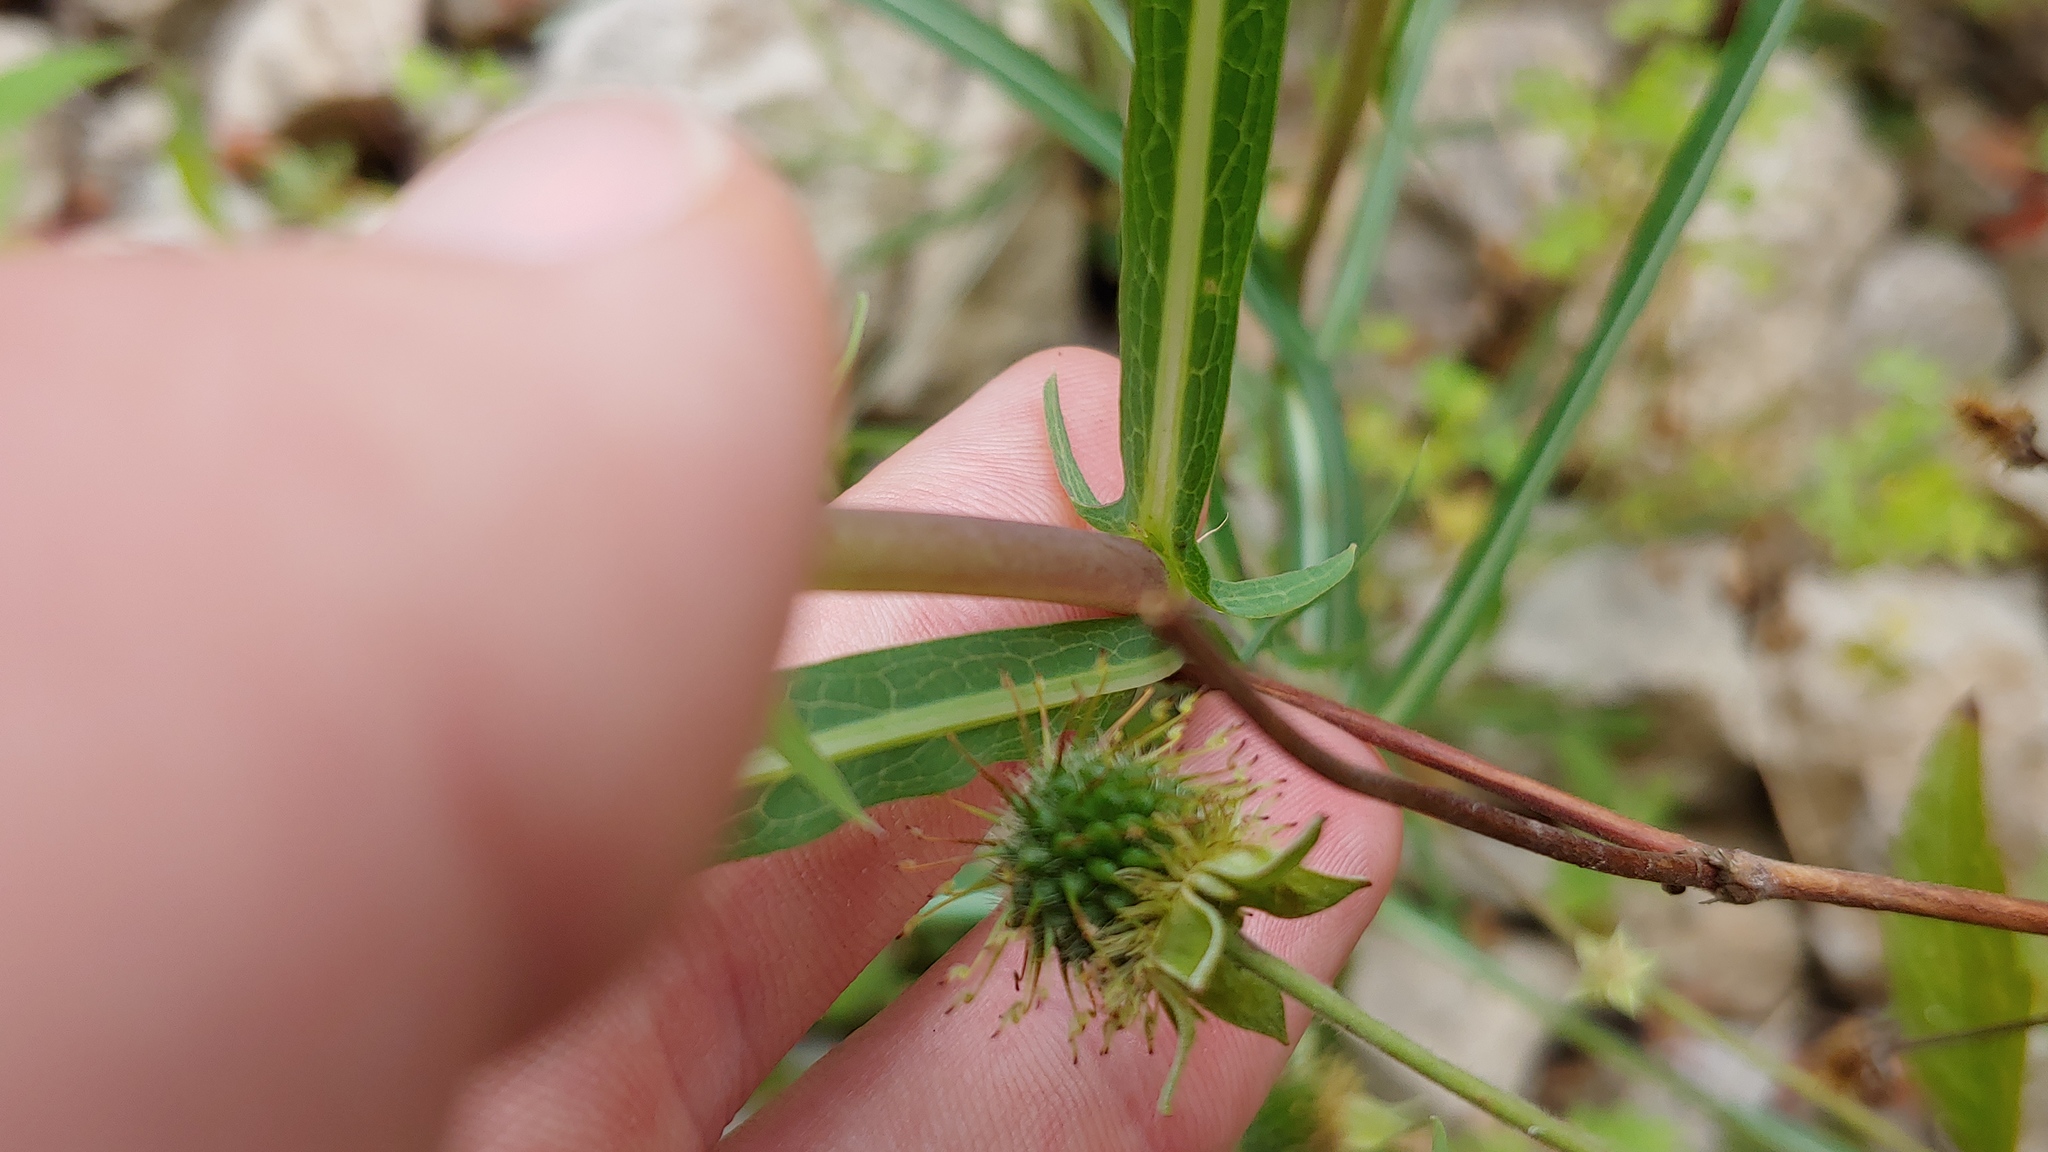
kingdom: Plantae
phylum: Tracheophyta
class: Magnoliopsida
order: Asterales
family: Asteraceae
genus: Lactuca
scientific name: Lactuca saligna
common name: Wild lettuce
